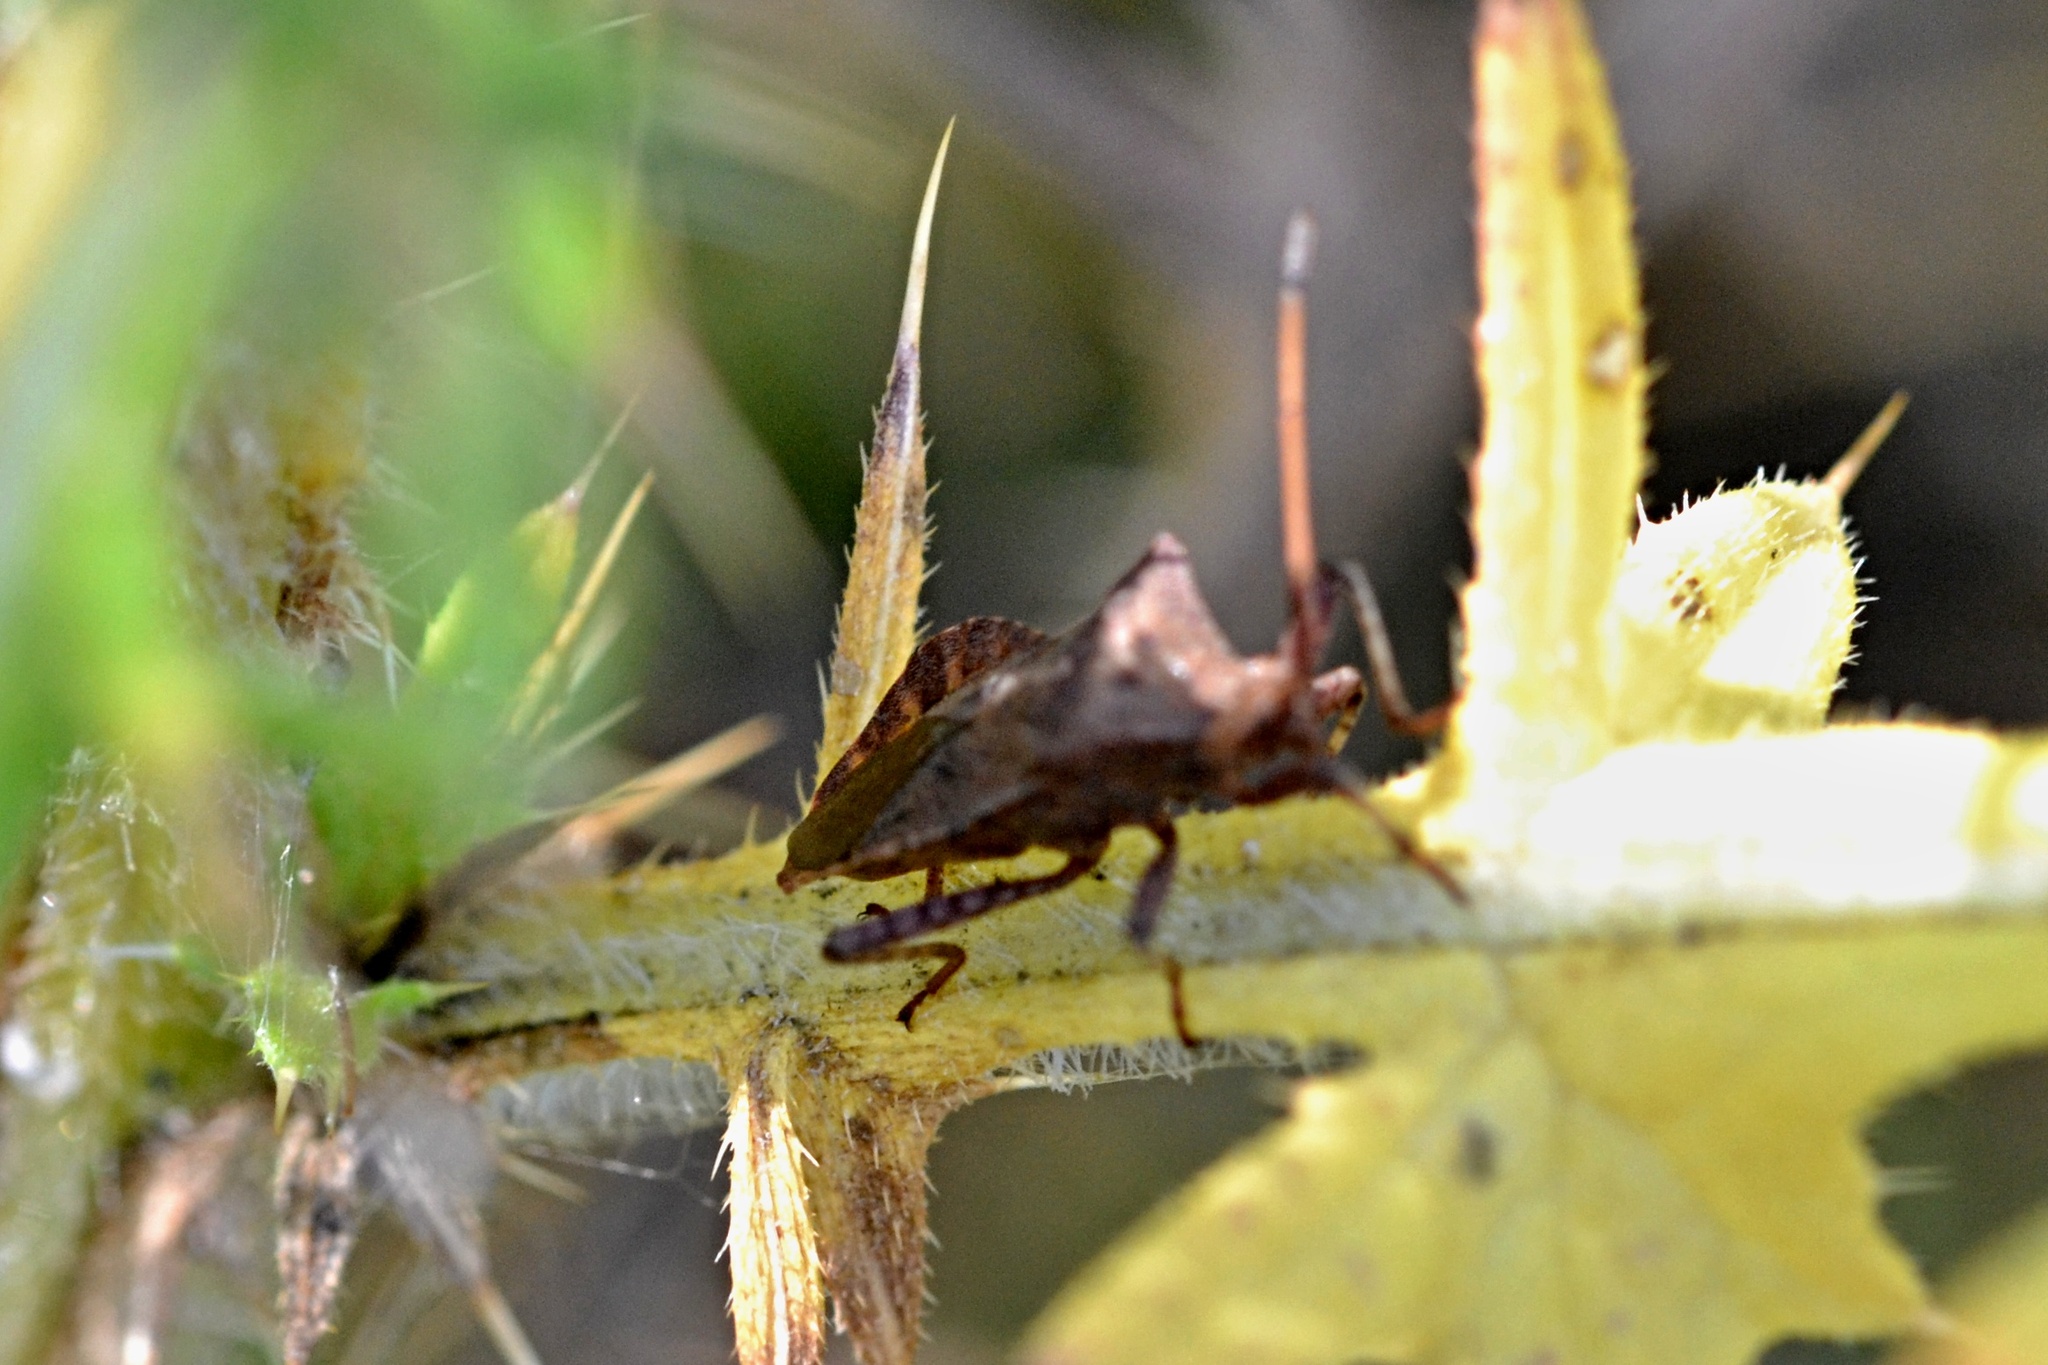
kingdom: Animalia
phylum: Arthropoda
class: Insecta
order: Hemiptera
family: Coreidae
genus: Coreus
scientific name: Coreus marginatus
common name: Dock bug
